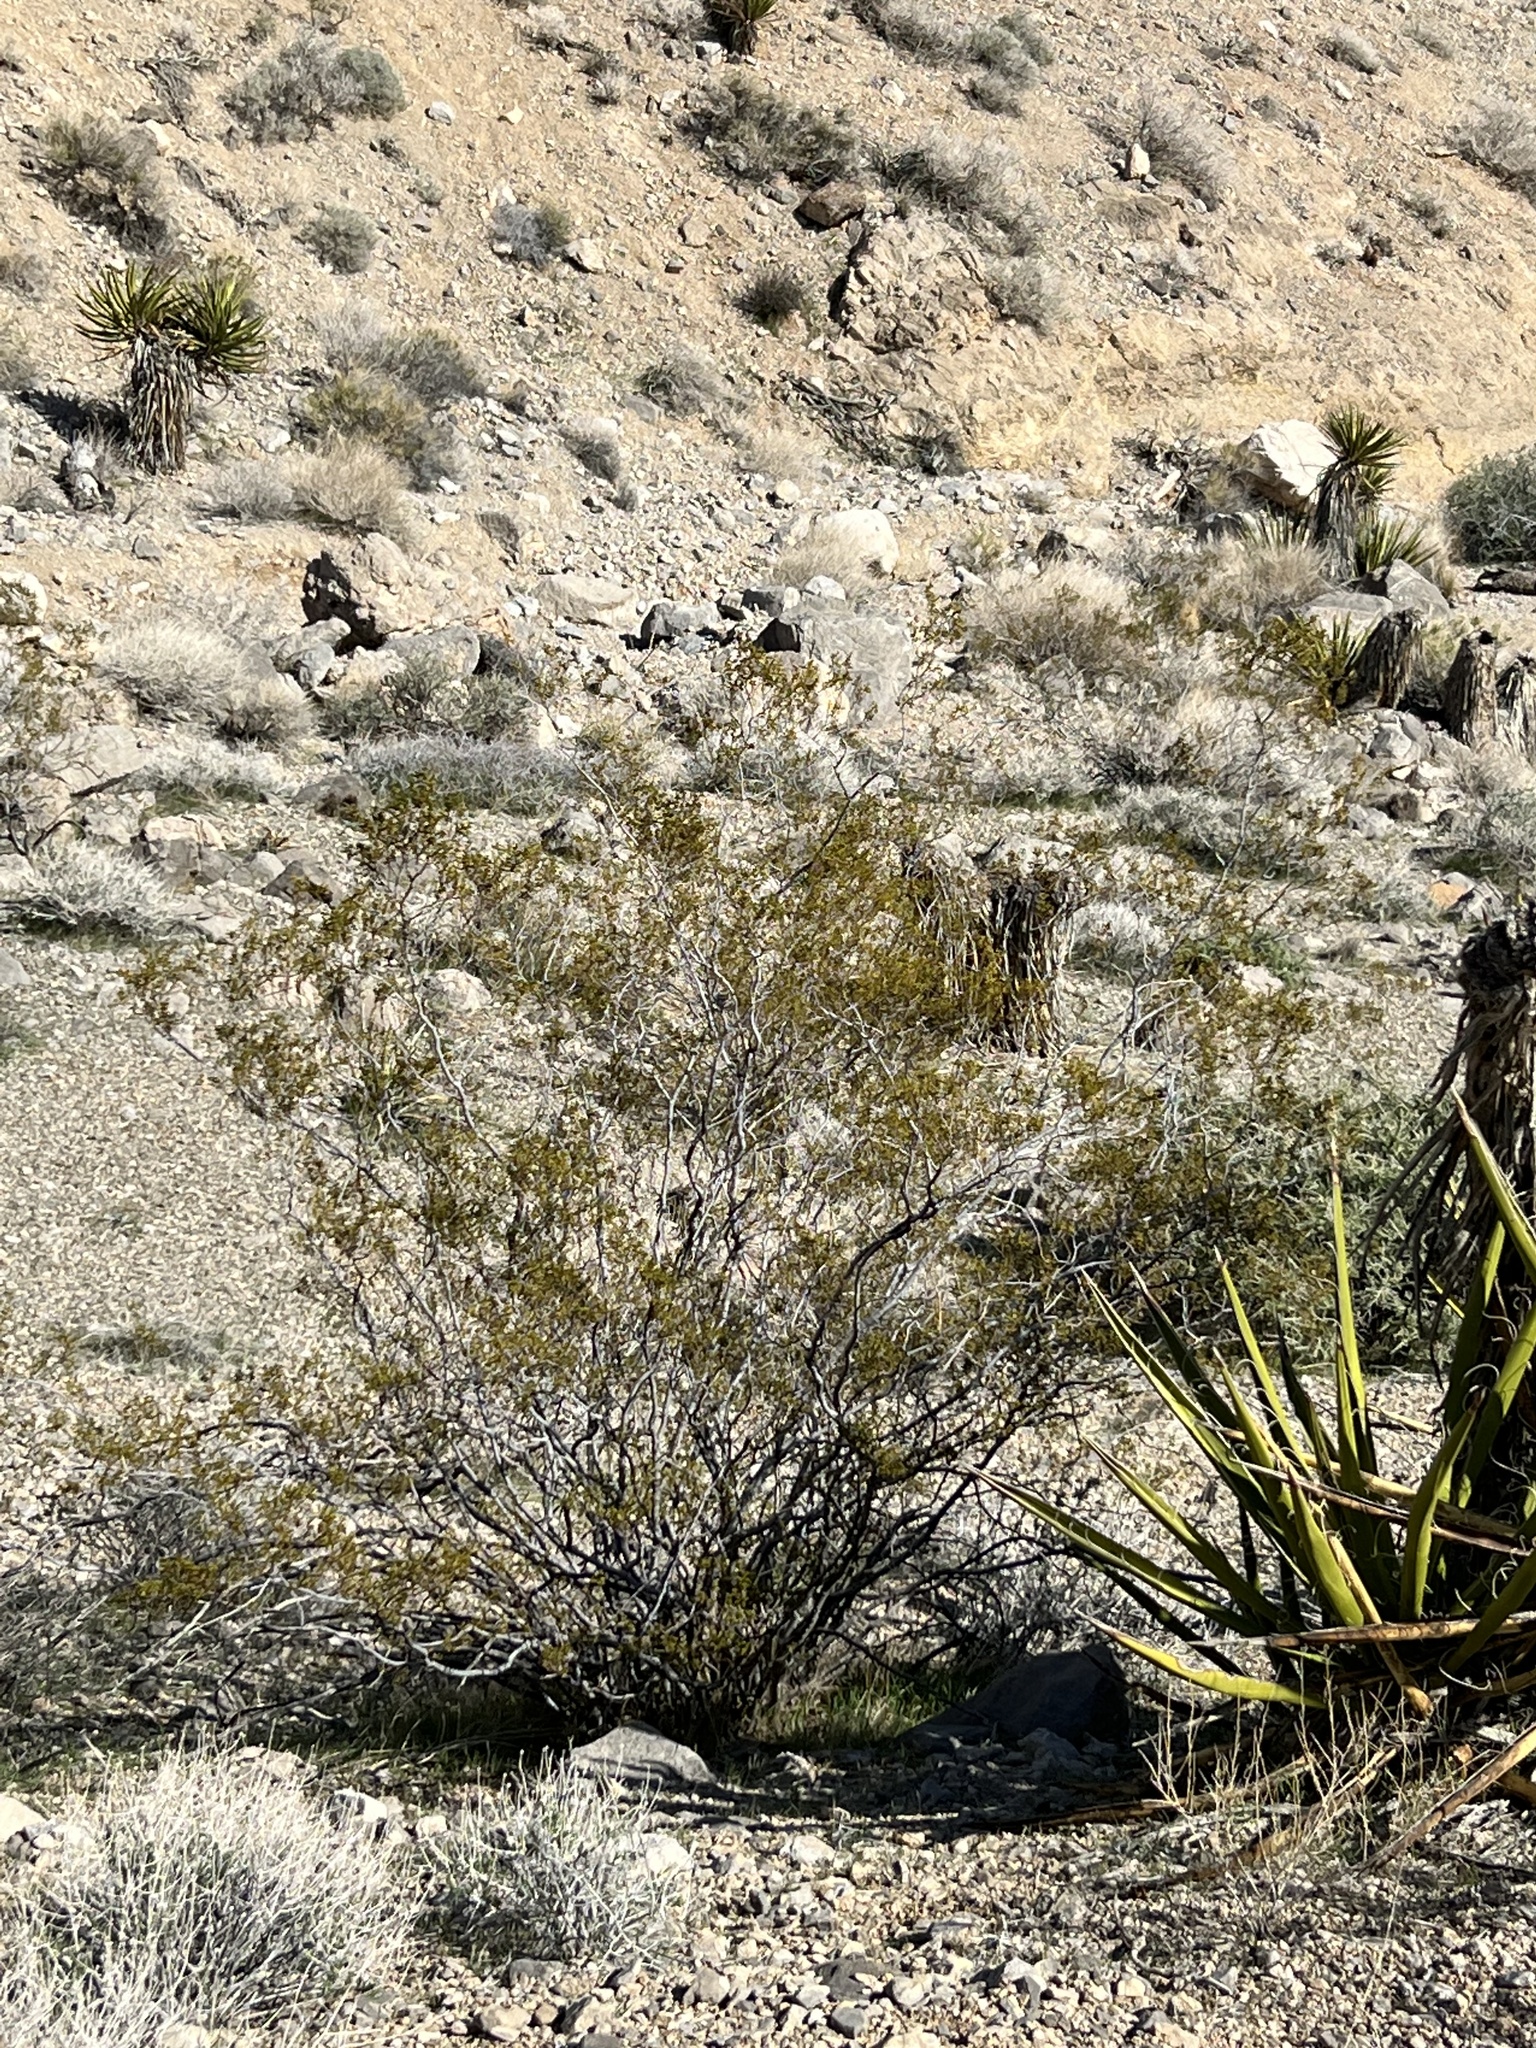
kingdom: Plantae
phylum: Tracheophyta
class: Magnoliopsida
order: Zygophyllales
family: Zygophyllaceae
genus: Larrea
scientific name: Larrea tridentata
